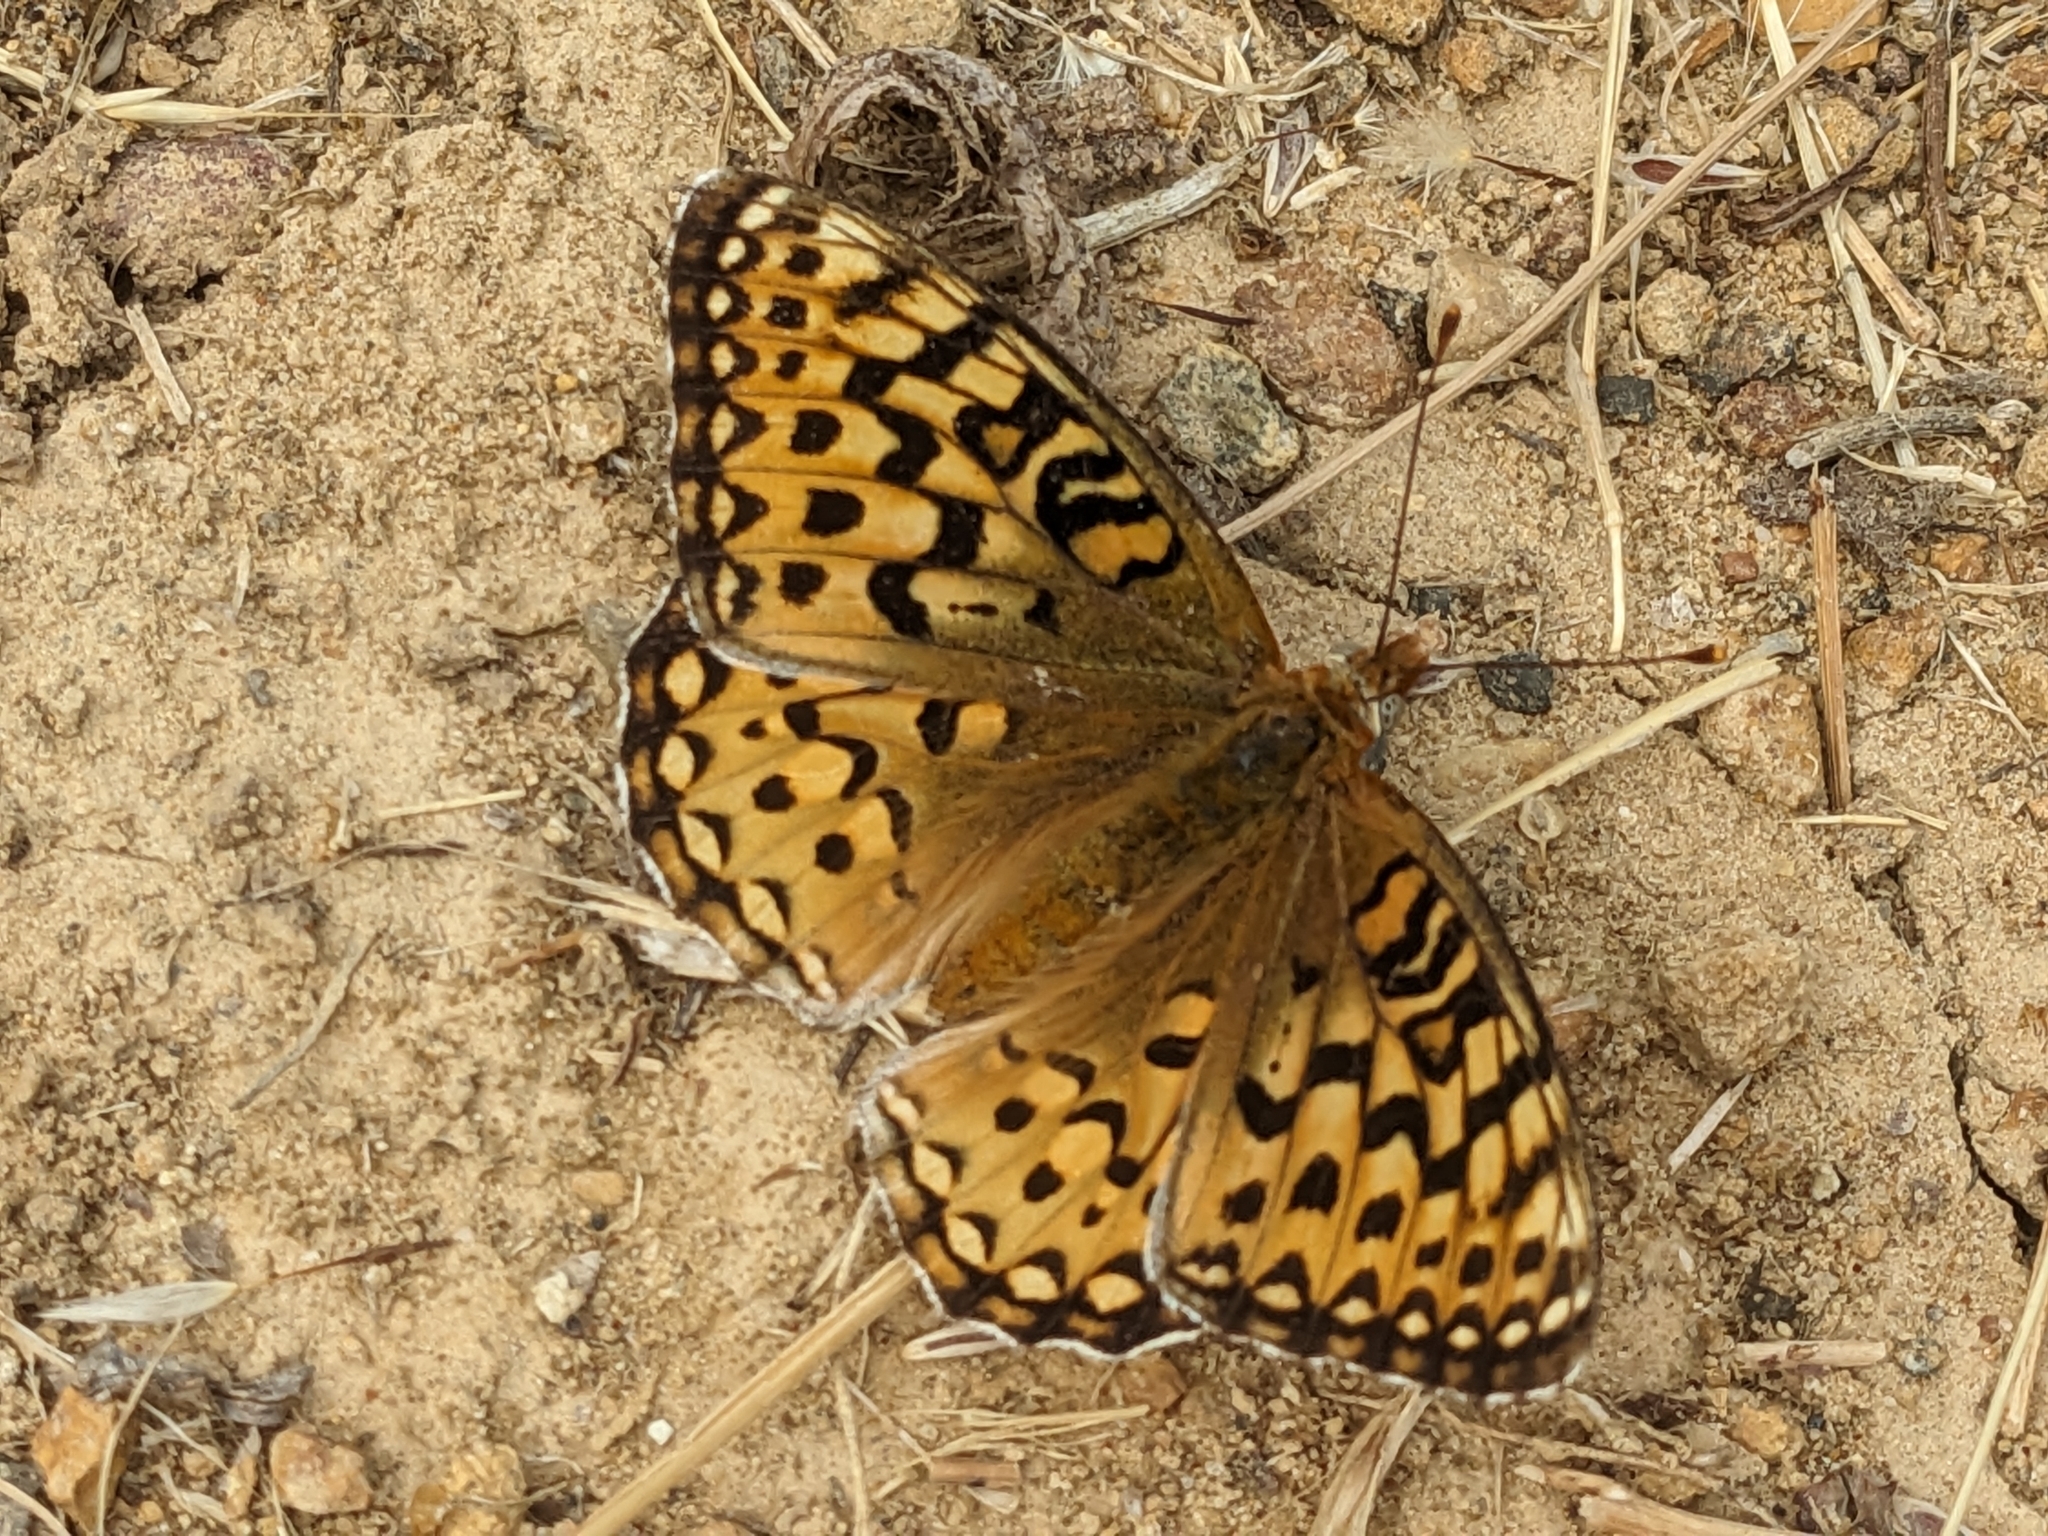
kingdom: Animalia
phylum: Arthropoda
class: Insecta
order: Lepidoptera
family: Nymphalidae
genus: Argynnis
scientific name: Argynnis coronis
